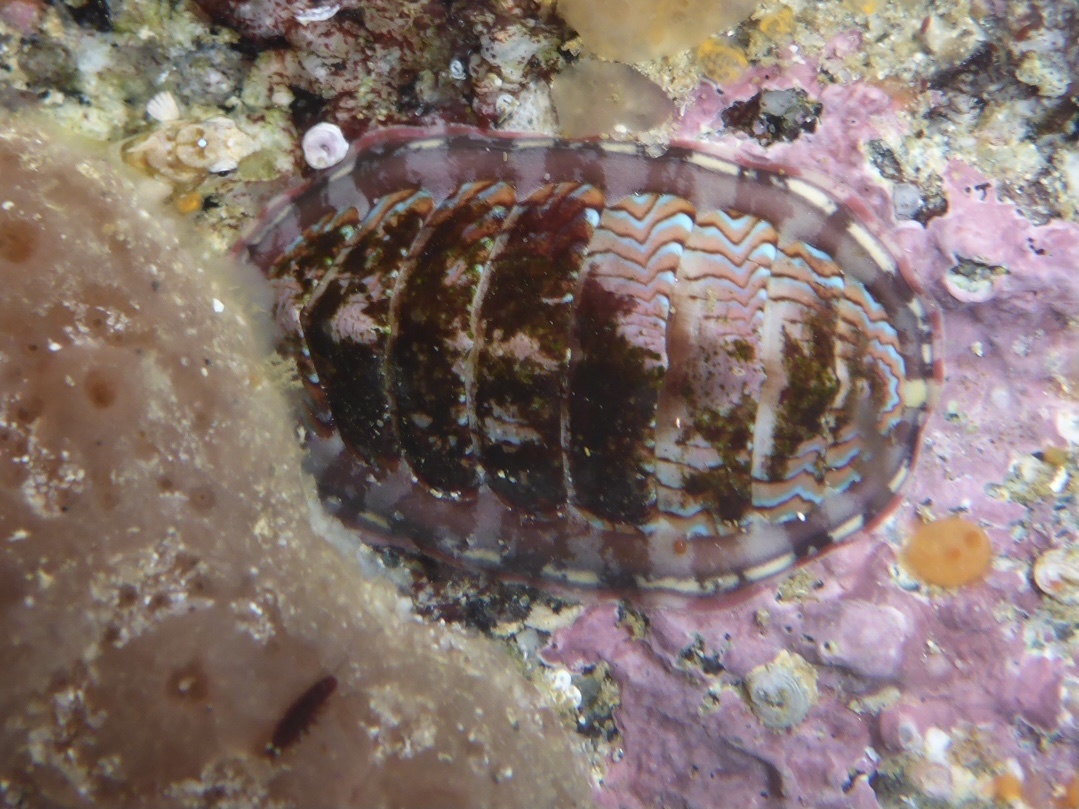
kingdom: Animalia
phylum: Mollusca
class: Polyplacophora
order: Chitonida
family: Tonicellidae
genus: Tonicella
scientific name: Tonicella lokii
